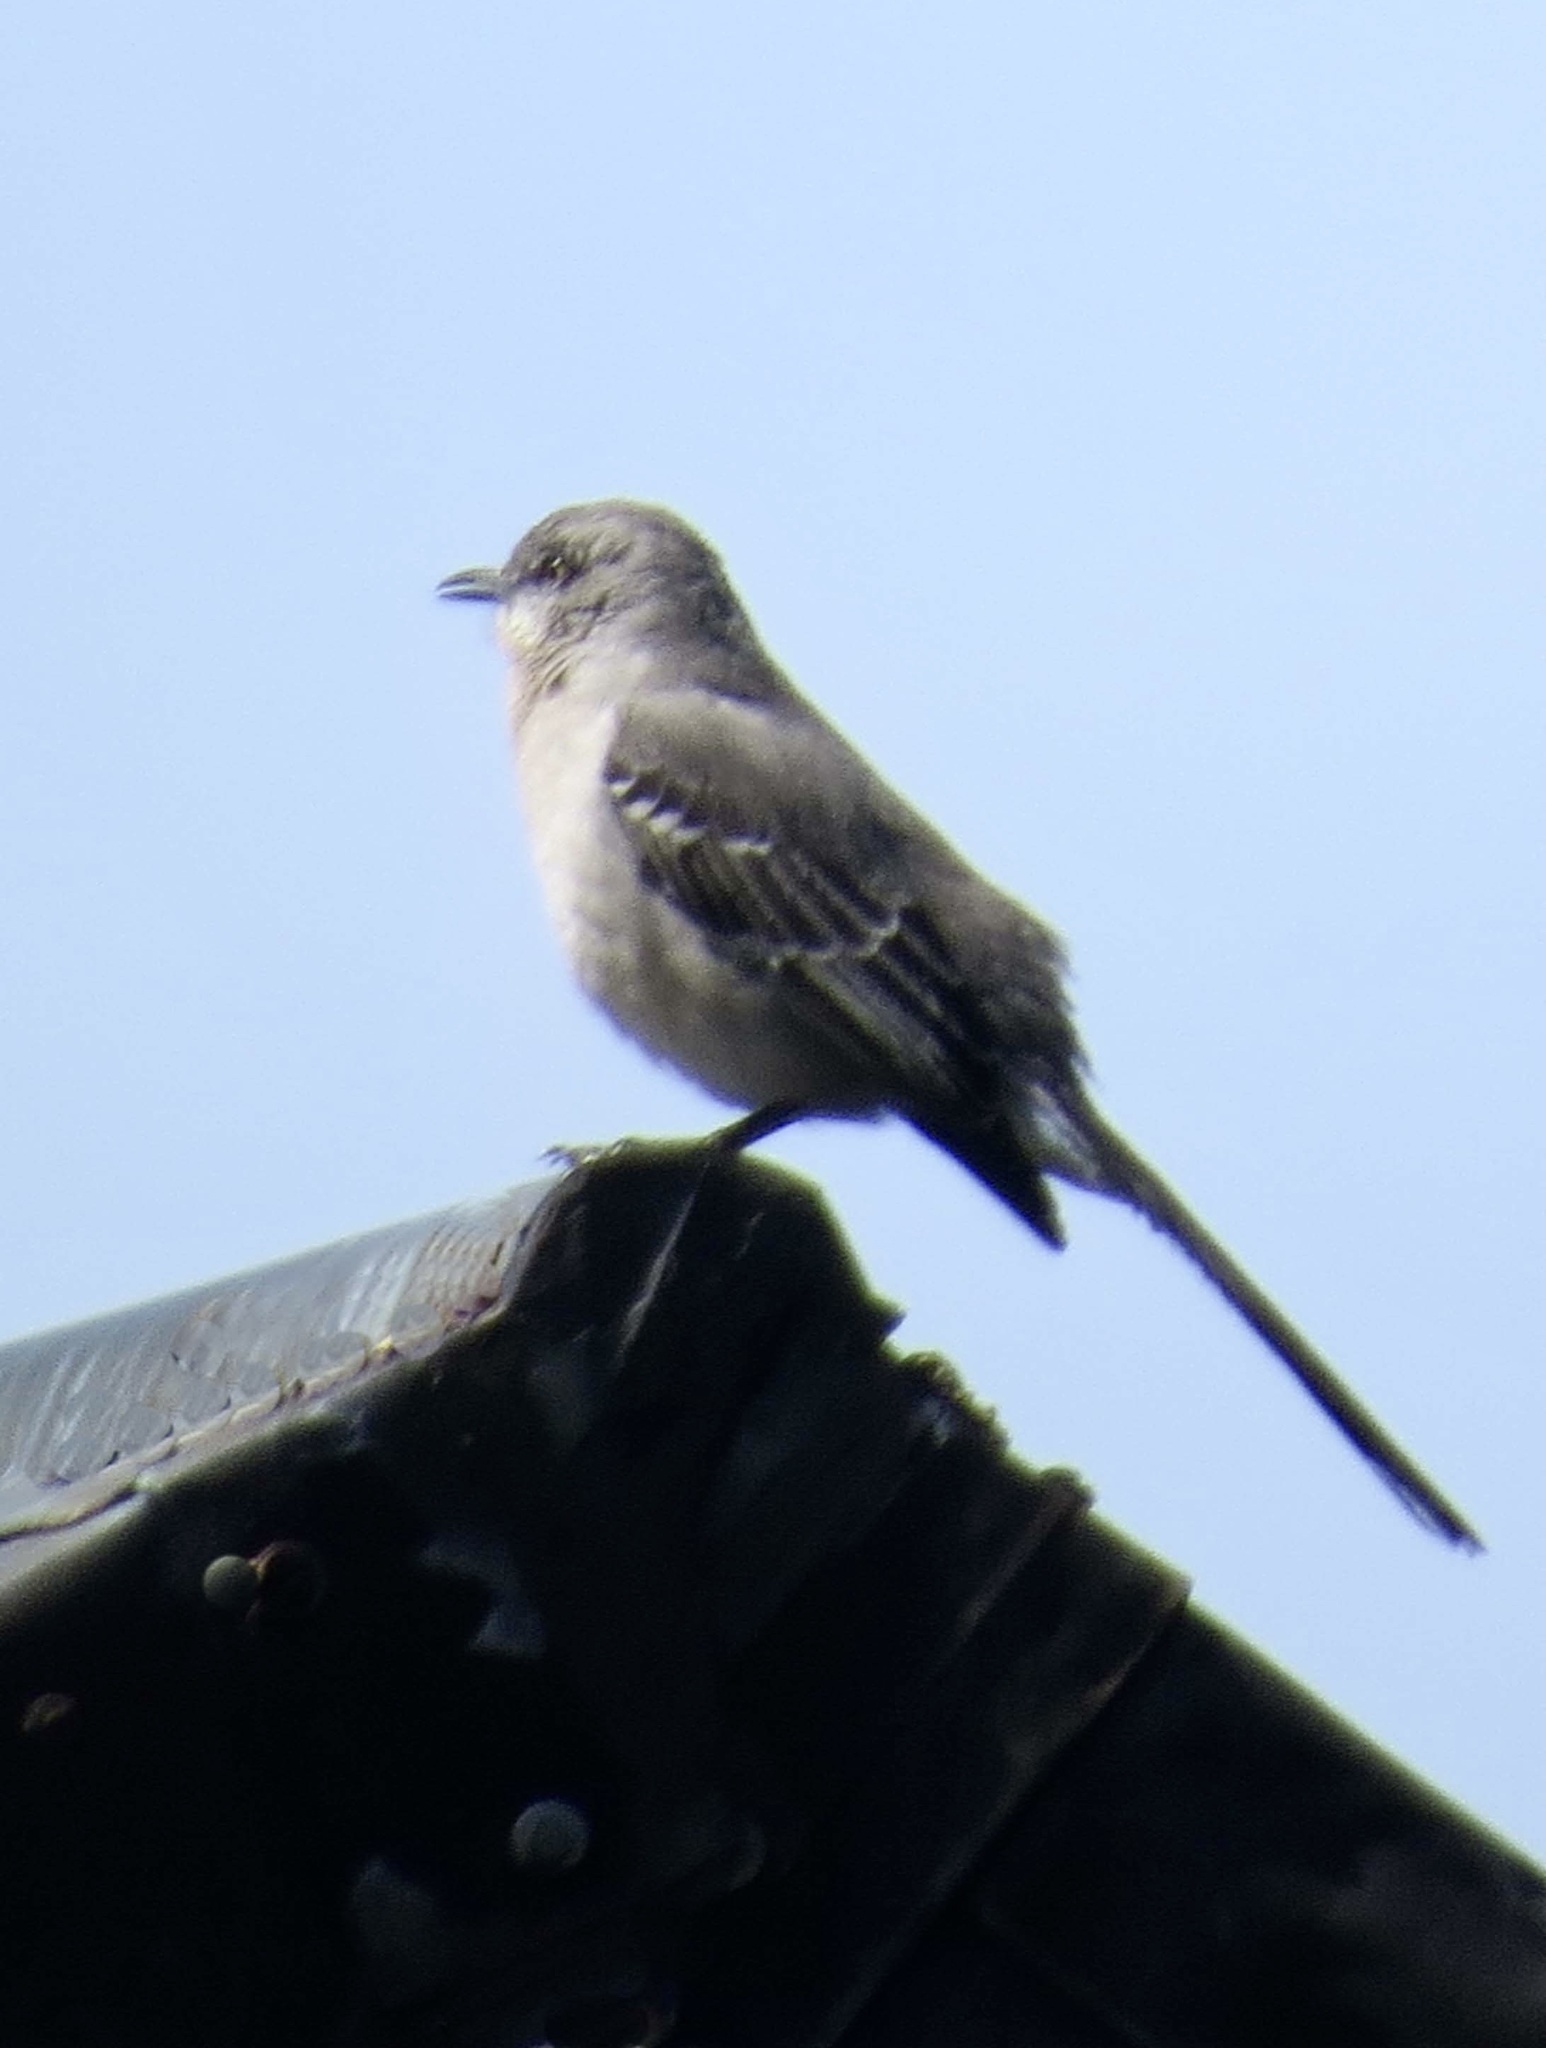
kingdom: Animalia
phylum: Chordata
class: Aves
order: Passeriformes
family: Mimidae
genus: Mimus
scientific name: Mimus polyglottos
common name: Northern mockingbird
